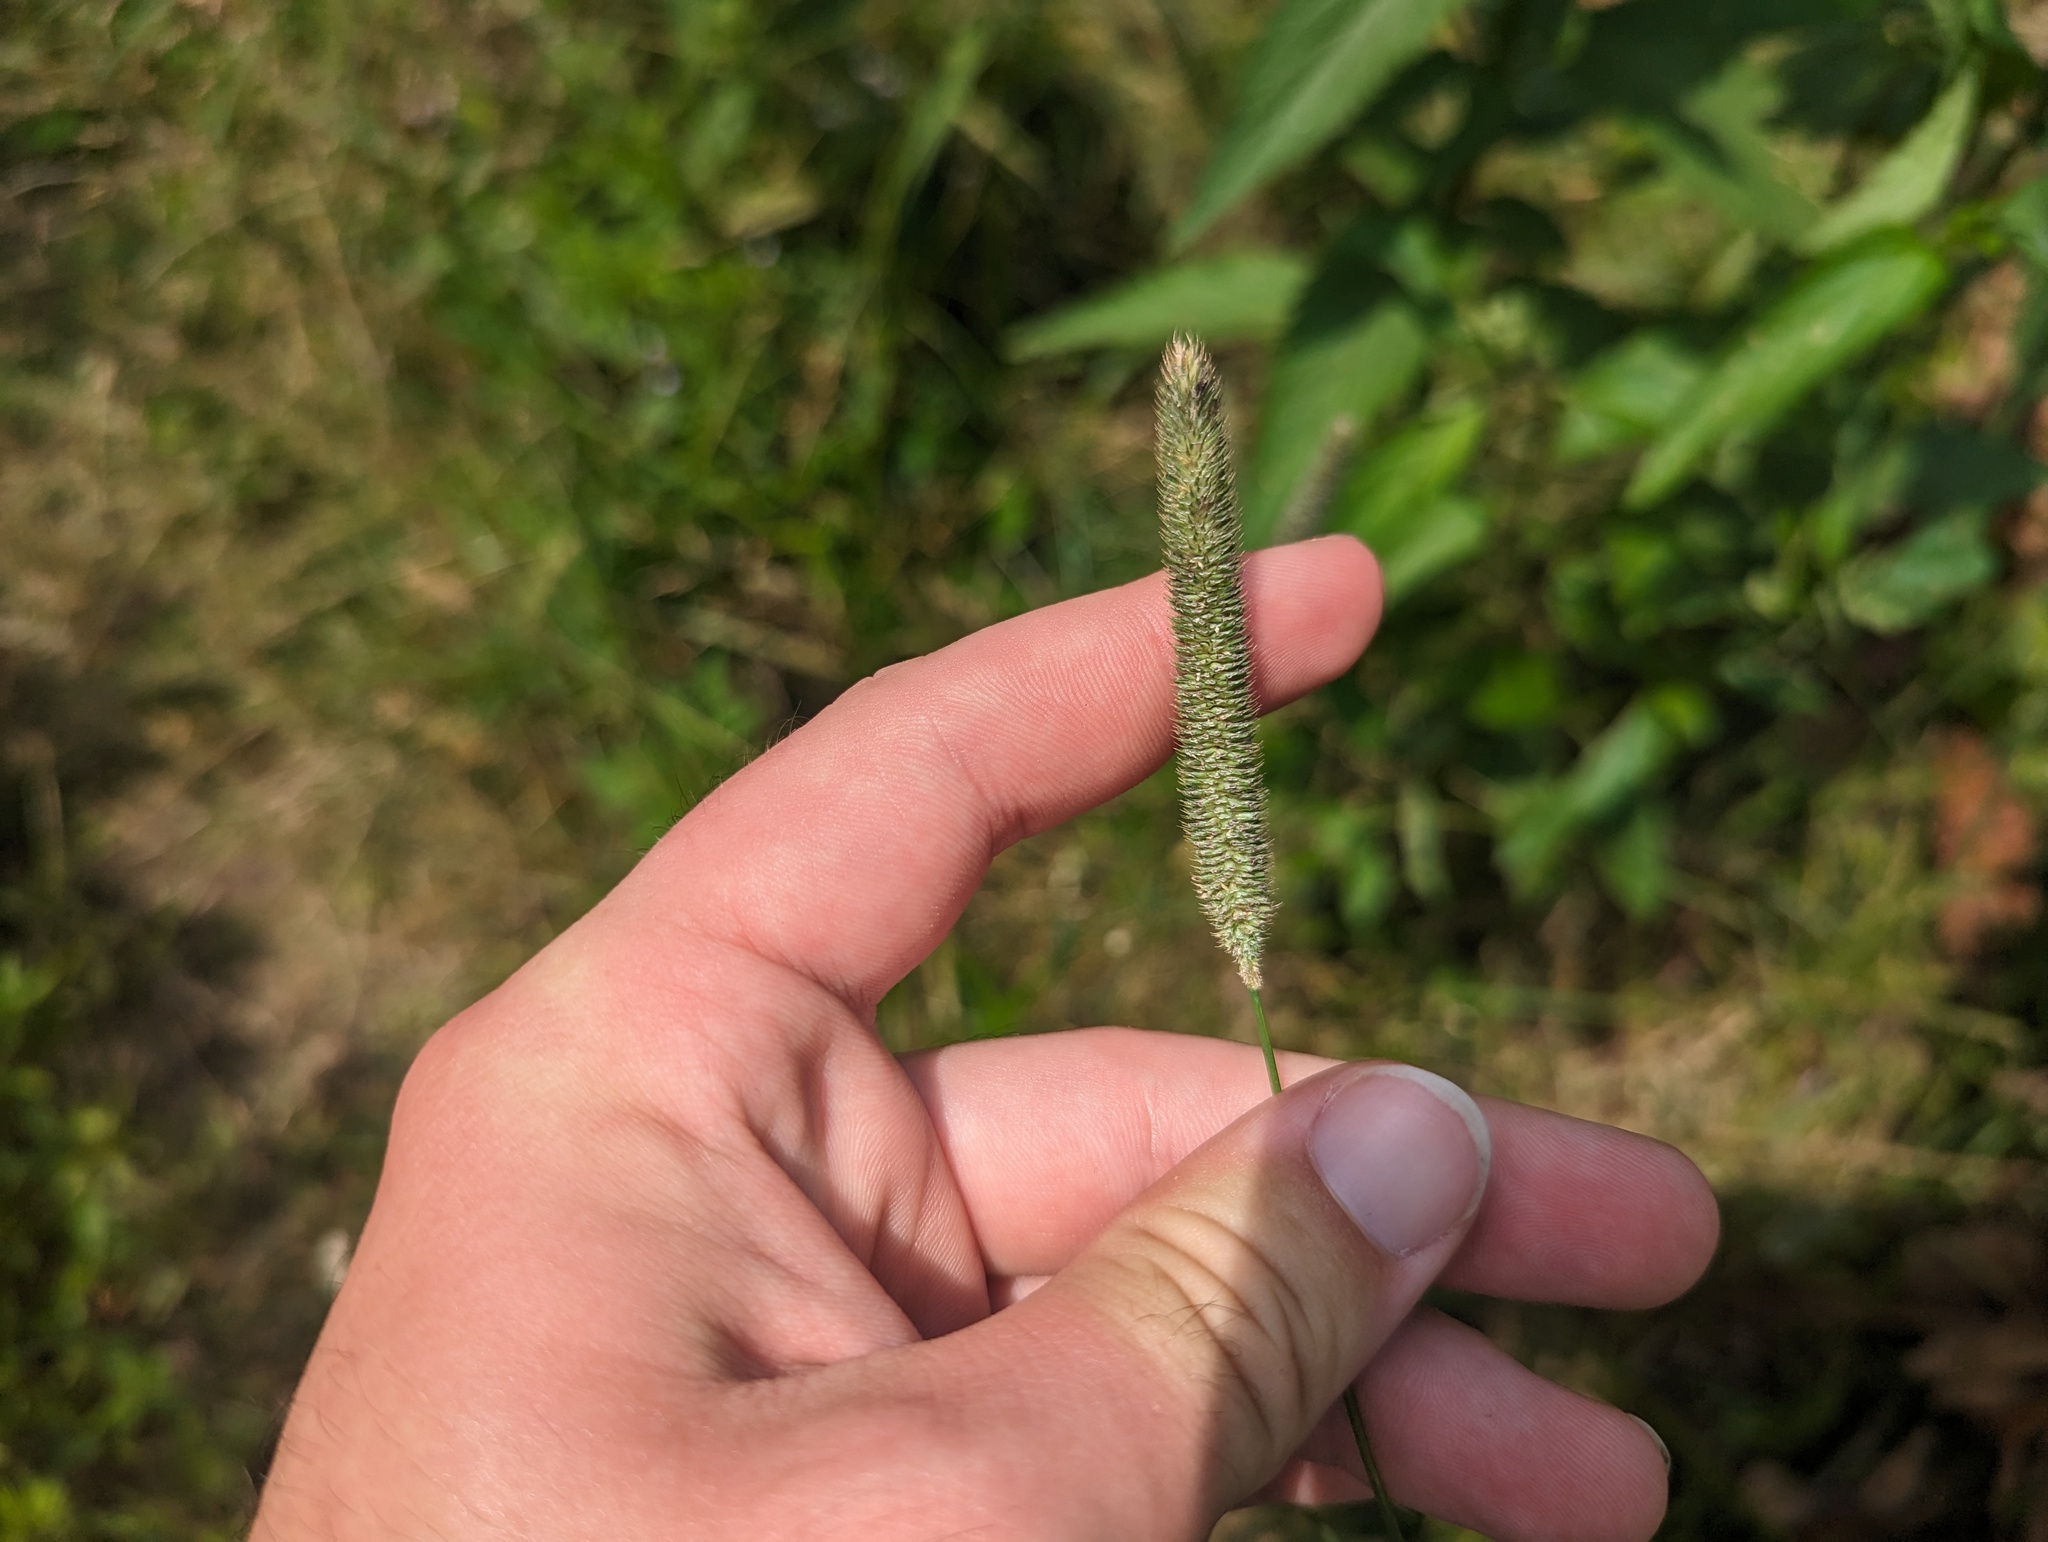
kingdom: Plantae
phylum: Tracheophyta
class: Liliopsida
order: Poales
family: Poaceae
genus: Phleum
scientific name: Phleum pratense
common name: Timothy grass
